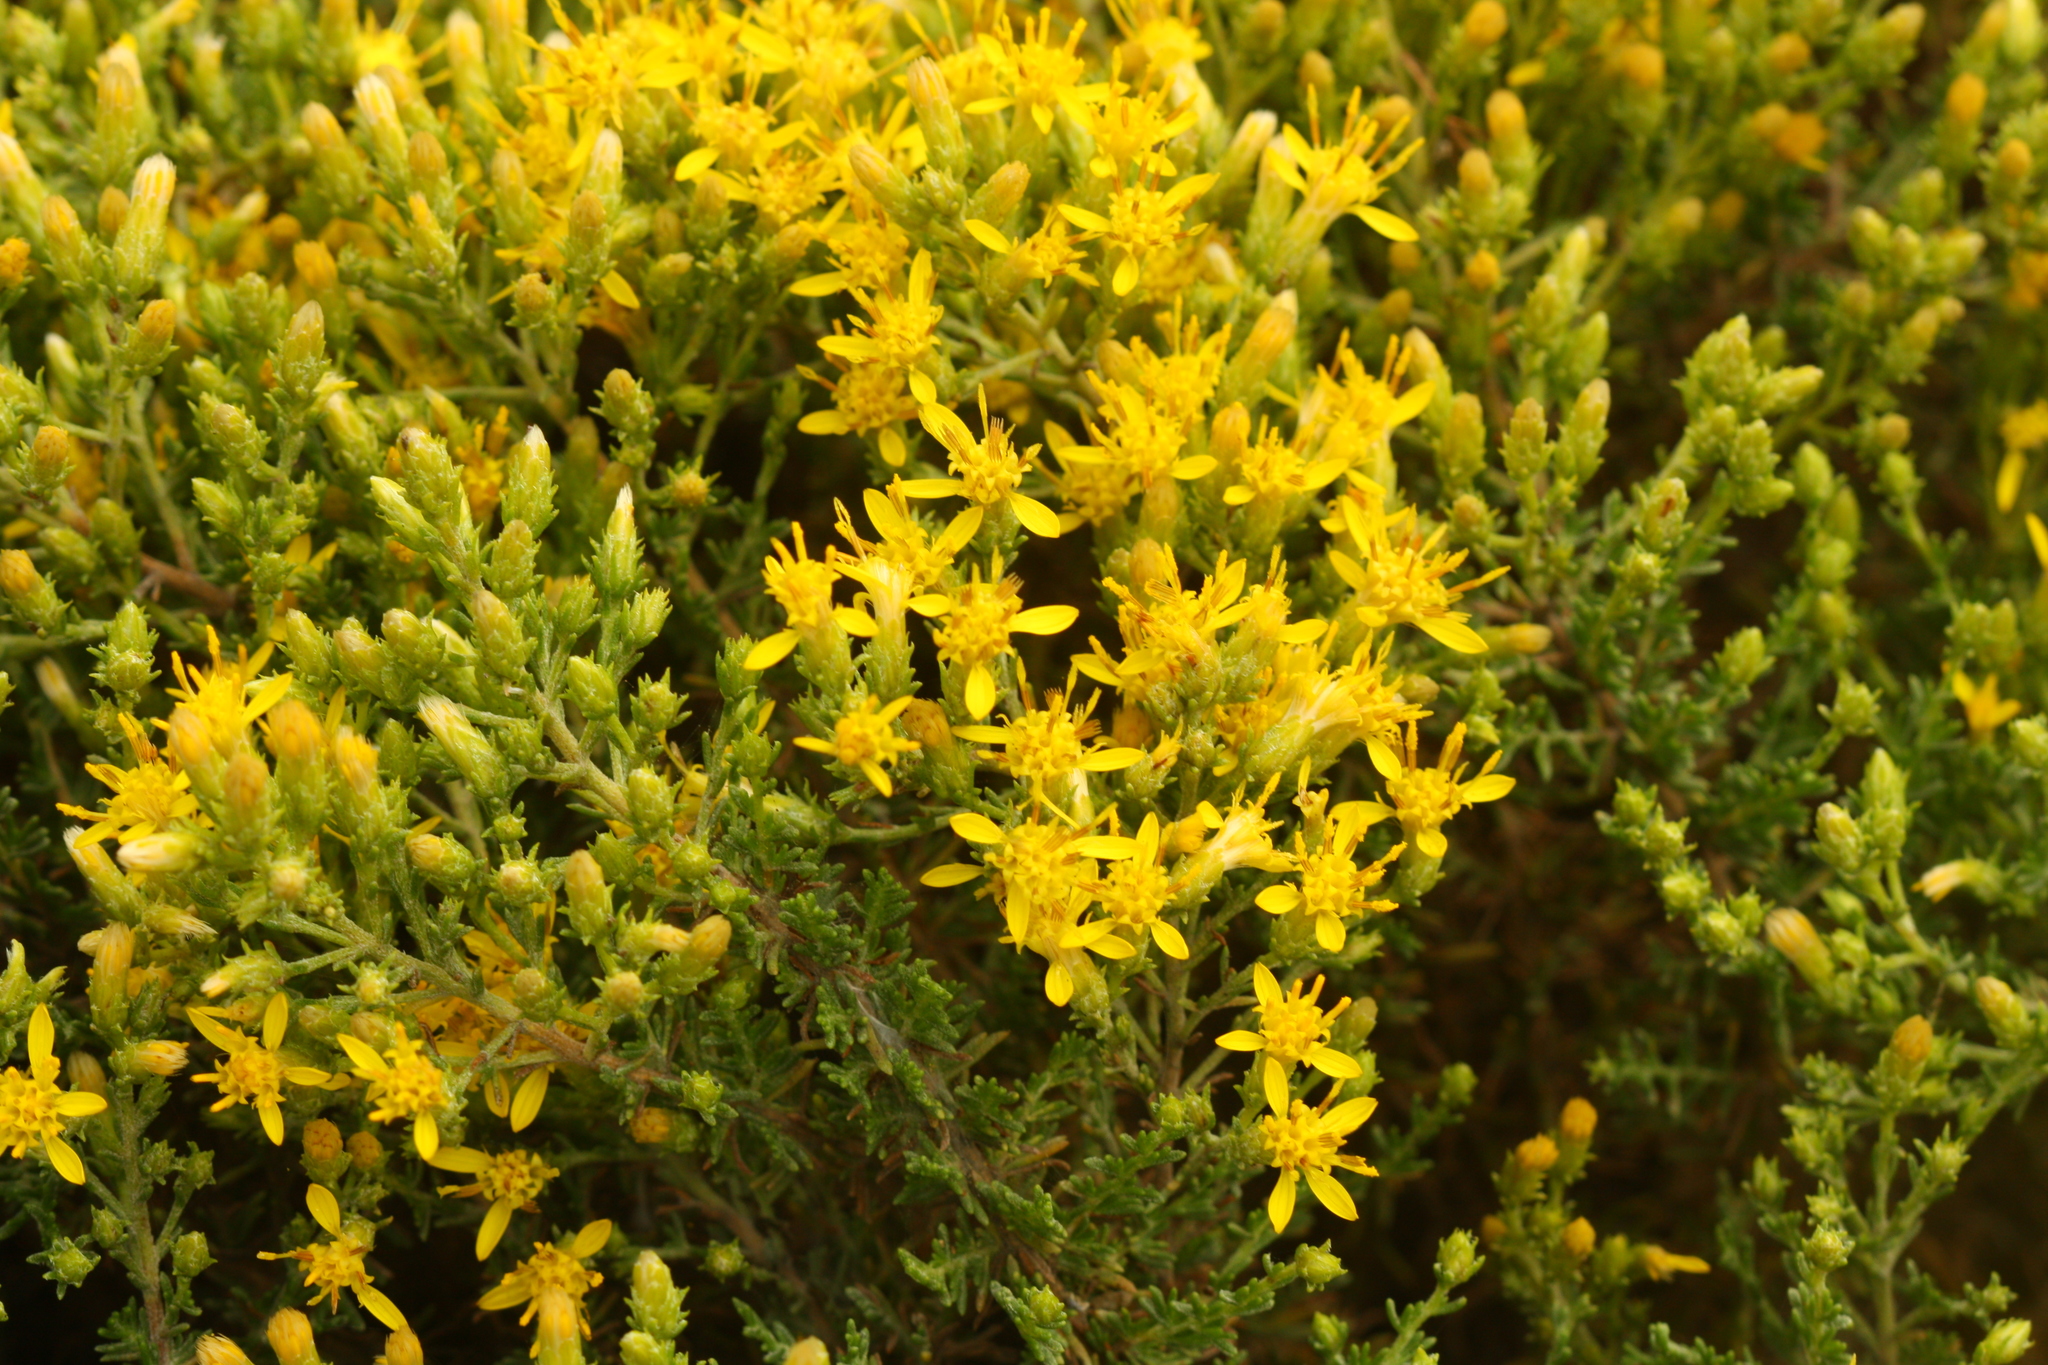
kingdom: Plantae
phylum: Tracheophyta
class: Magnoliopsida
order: Asterales
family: Asteraceae
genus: Ericameria
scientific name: Ericameria ericoides
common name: California goldenbush
